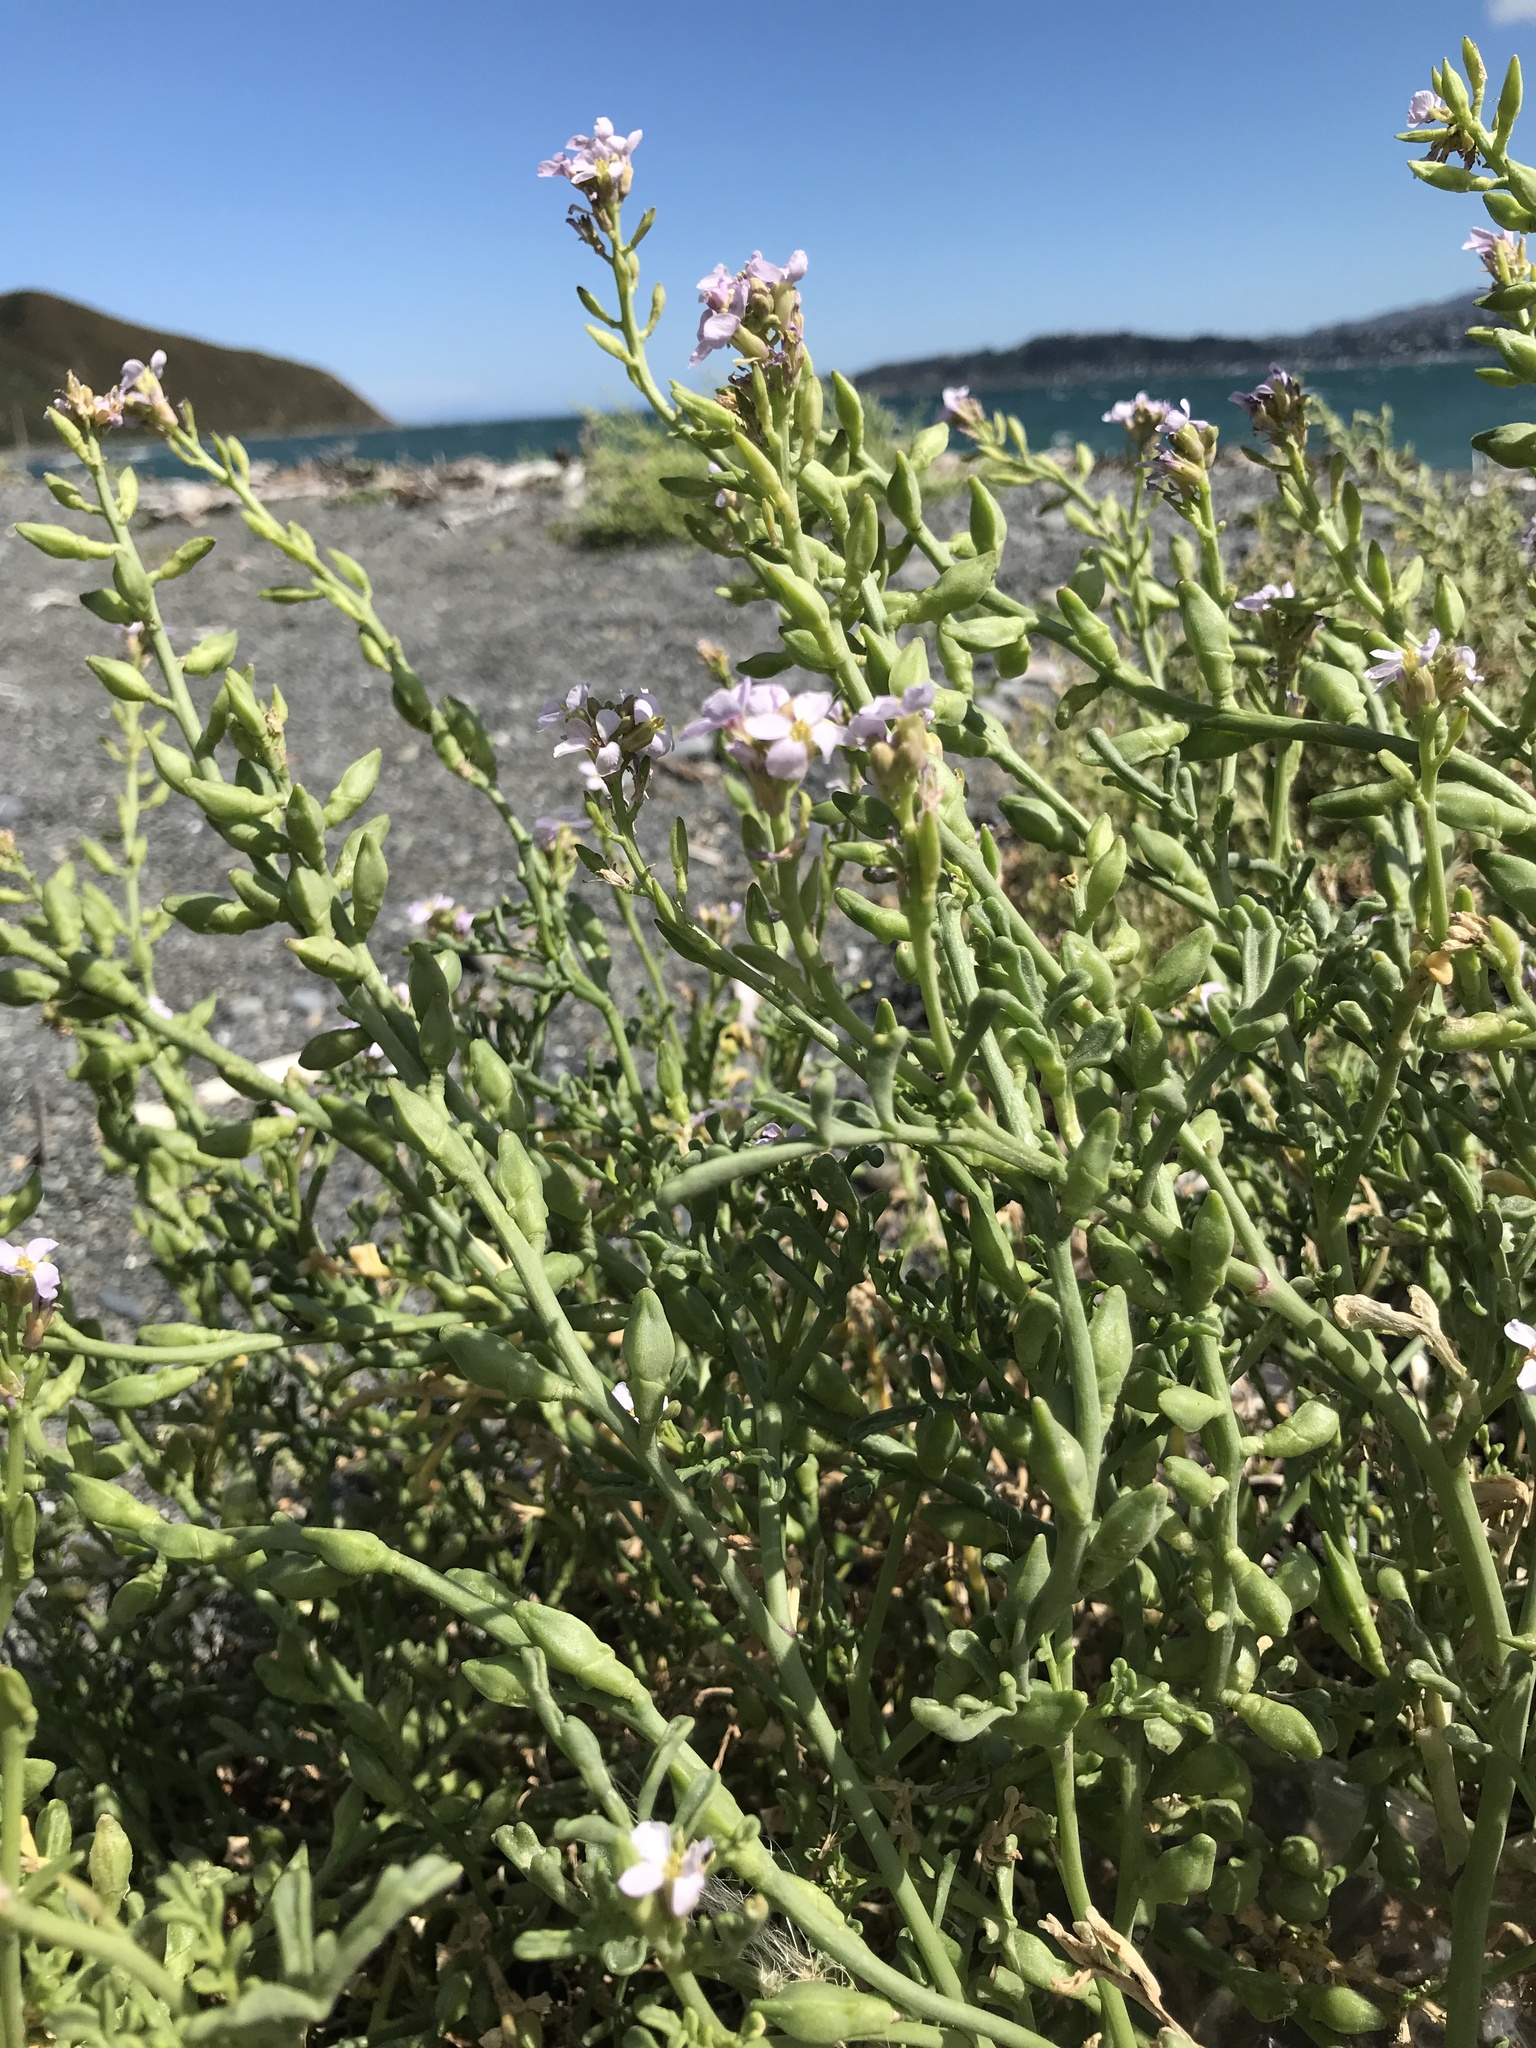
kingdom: Plantae
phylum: Tracheophyta
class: Magnoliopsida
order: Brassicales
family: Brassicaceae
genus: Cakile
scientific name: Cakile maritima
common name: Sea rocket
